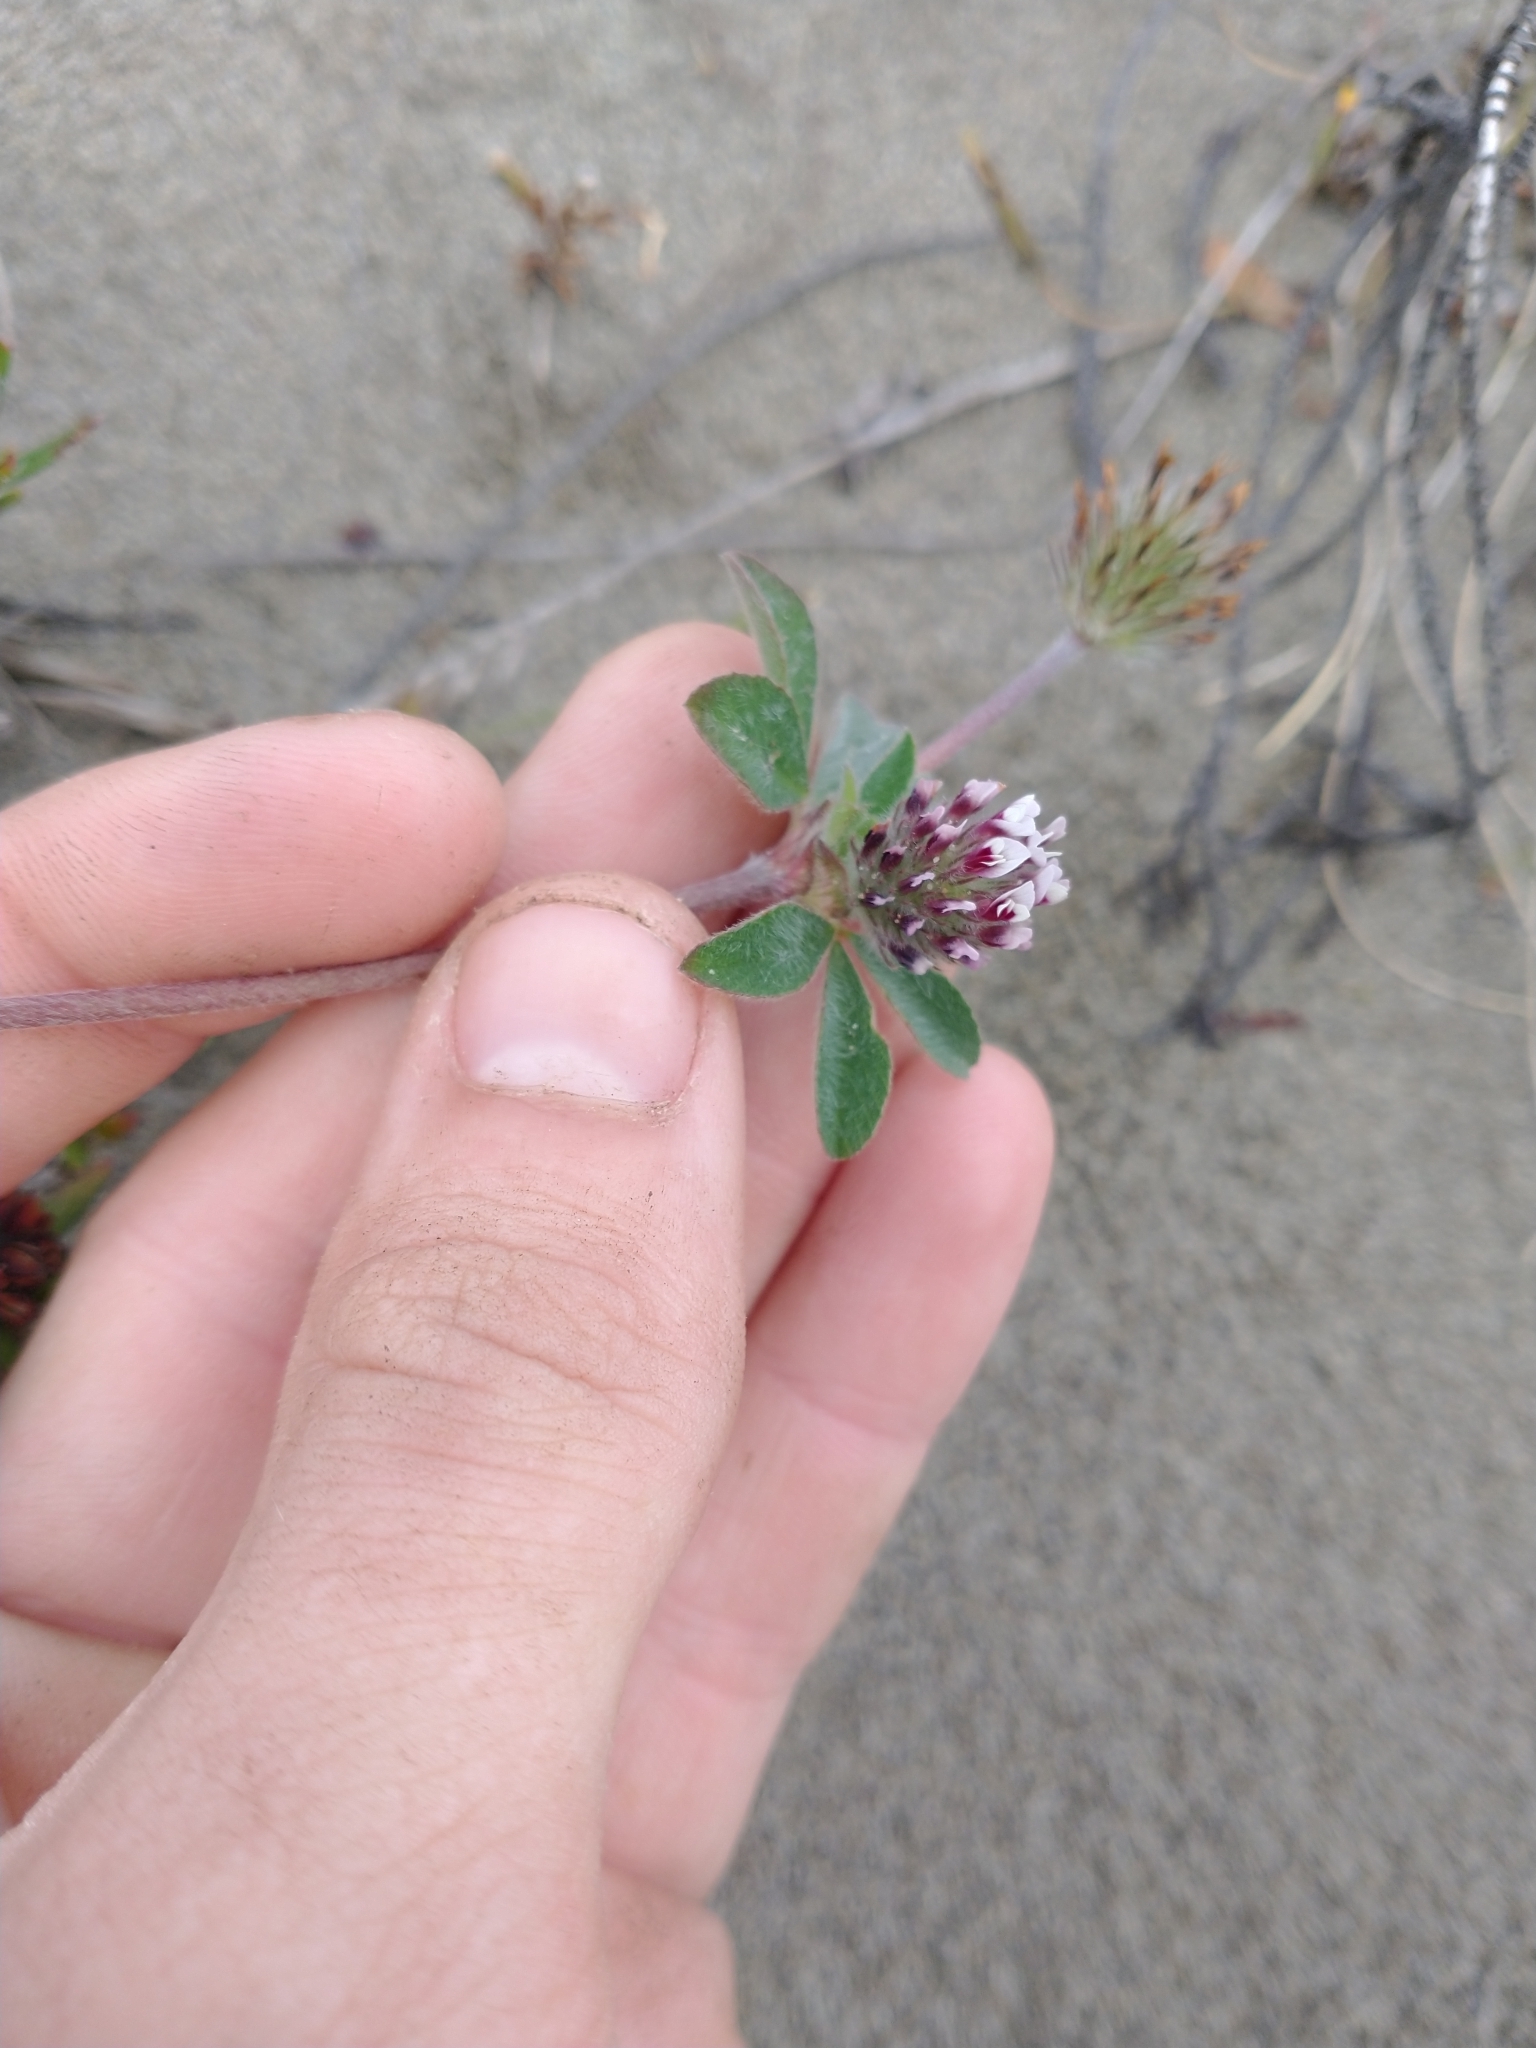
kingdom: Plantae
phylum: Tracheophyta
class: Magnoliopsida
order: Fabales
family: Fabaceae
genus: Trifolium
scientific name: Trifolium macraei
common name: Macrae's clover
